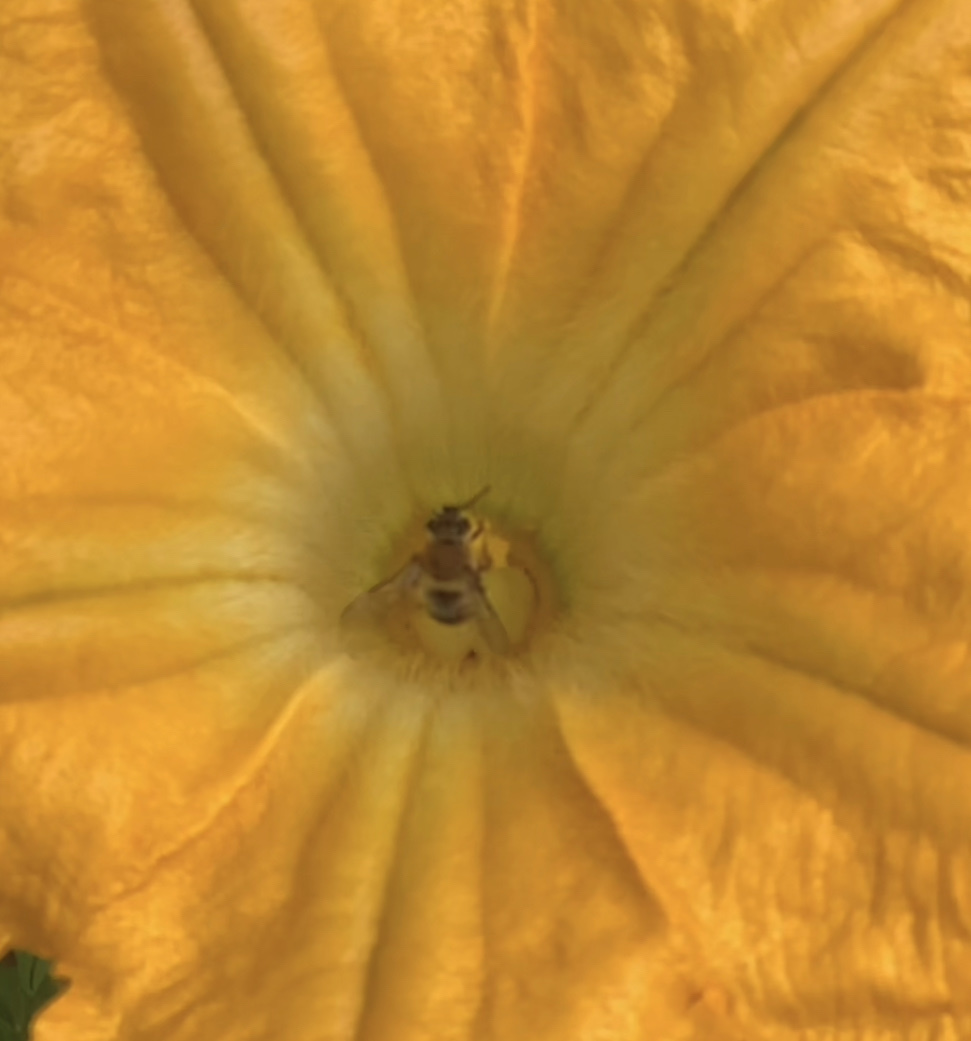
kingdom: Animalia
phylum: Arthropoda
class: Insecta
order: Hymenoptera
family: Apidae
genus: Peponapis
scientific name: Peponapis pruinosa
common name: Pruinose squash bee
